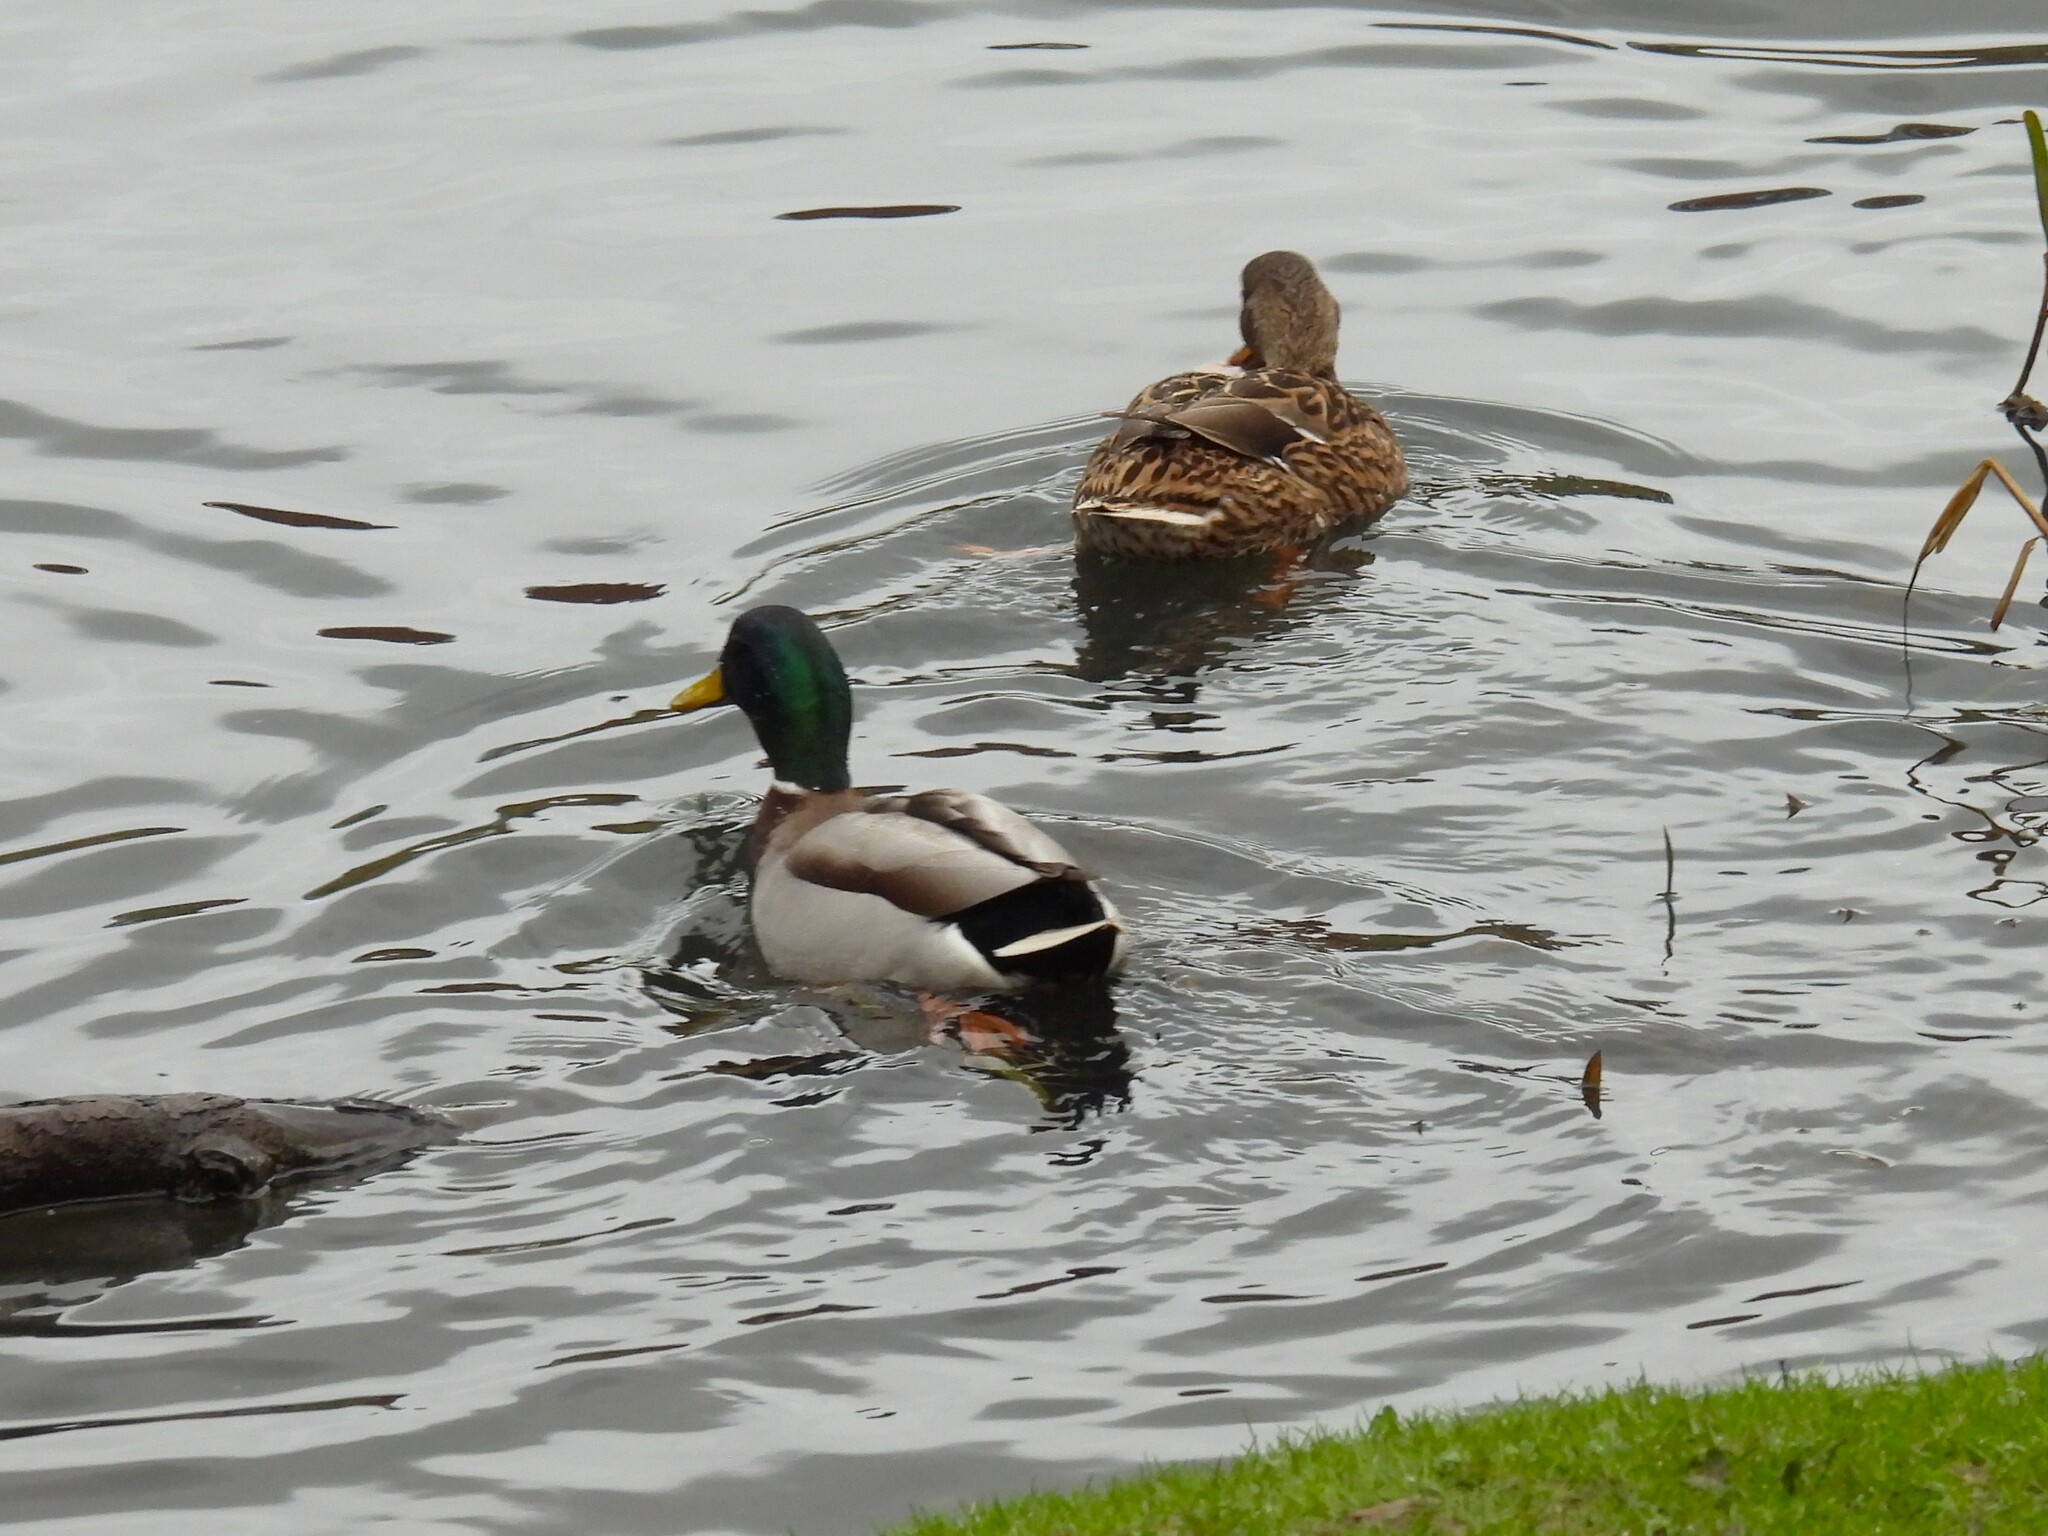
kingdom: Animalia
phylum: Chordata
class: Aves
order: Anseriformes
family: Anatidae
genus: Anas
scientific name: Anas platyrhynchos
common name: Mallard
